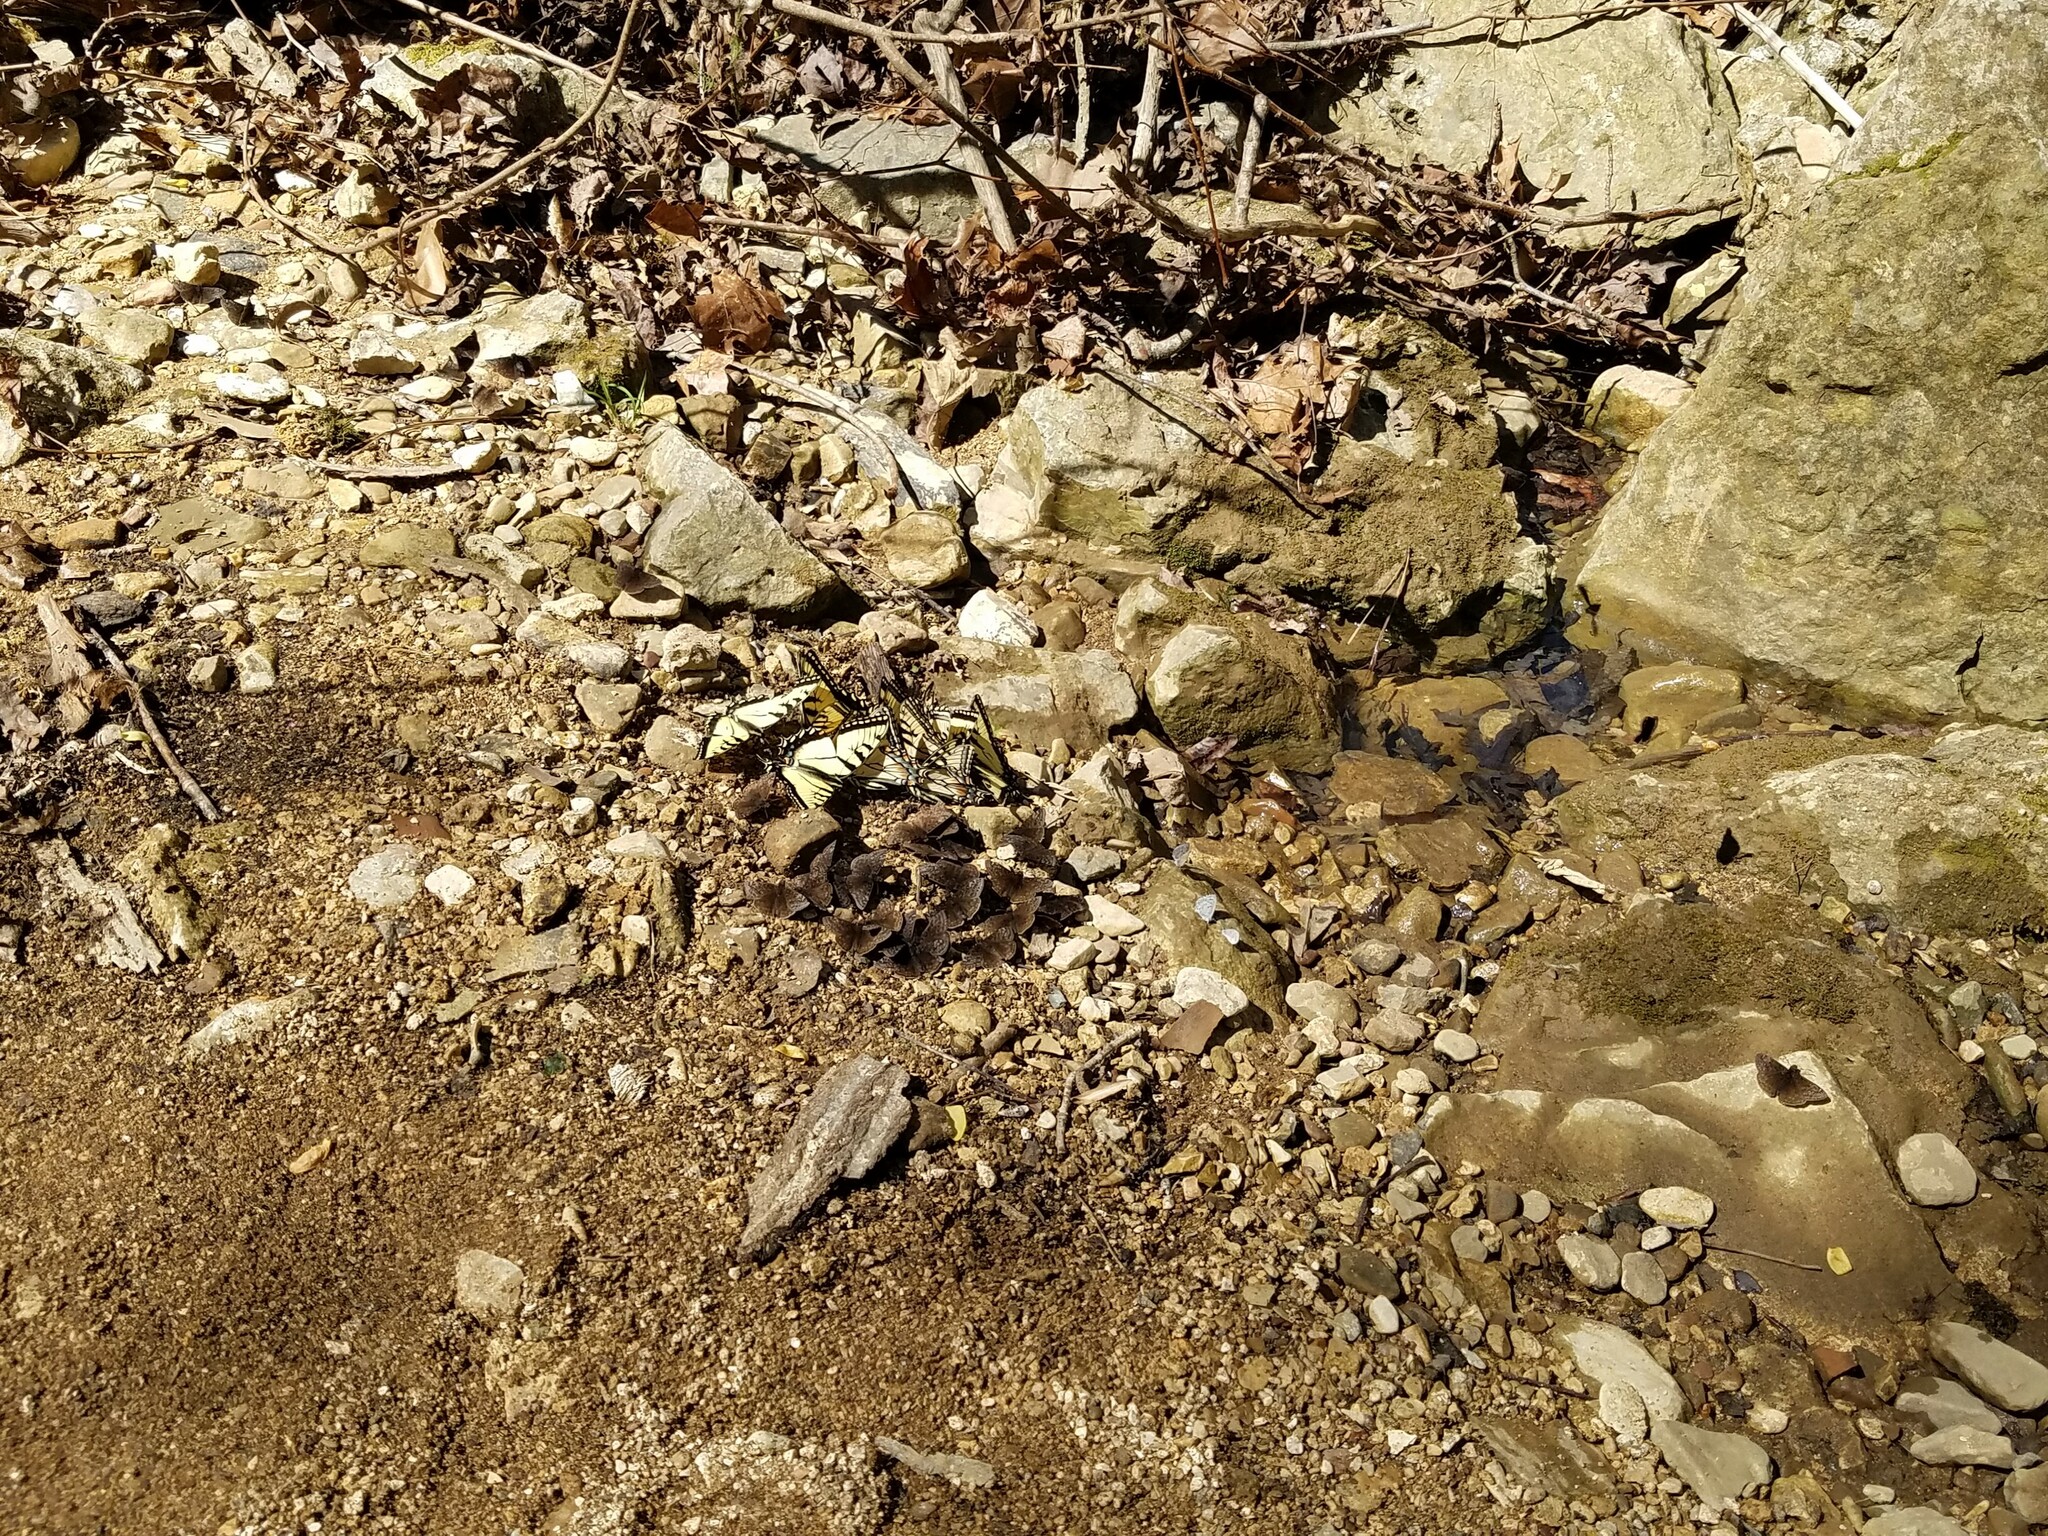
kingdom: Animalia
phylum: Arthropoda
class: Insecta
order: Lepidoptera
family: Papilionidae
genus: Papilio
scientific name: Papilio glaucus
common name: Tiger swallowtail
